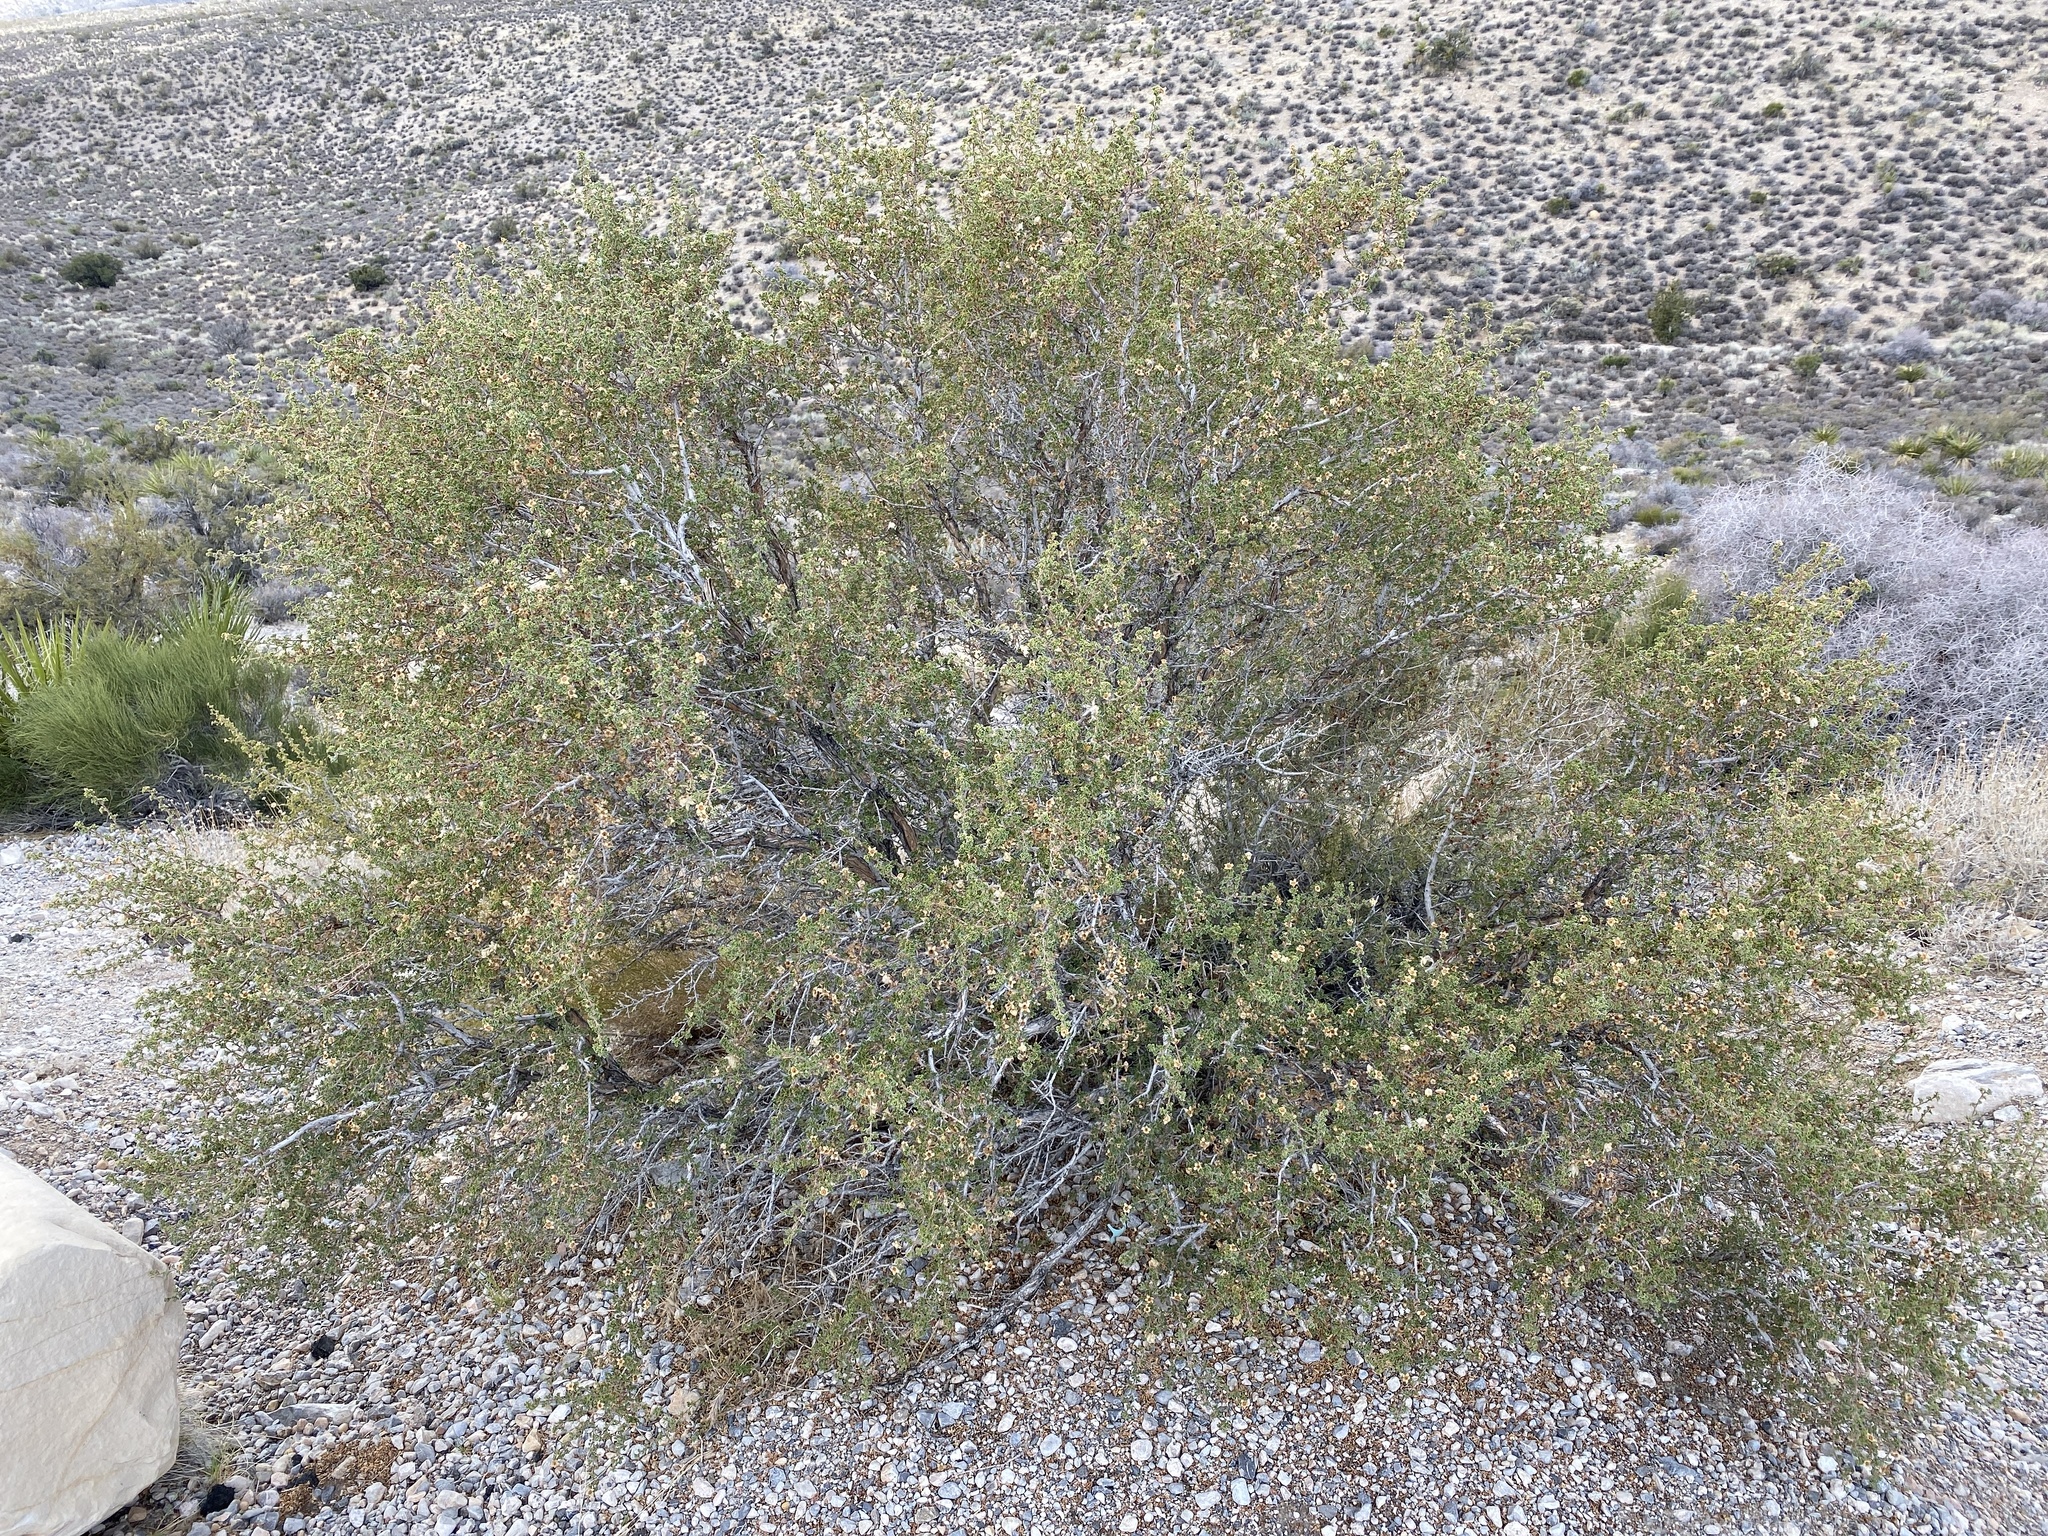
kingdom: Plantae
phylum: Tracheophyta
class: Magnoliopsida
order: Rosales
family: Rosaceae
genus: Purshia
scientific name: Purshia stansburiana
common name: Stansbury's cliffrose
